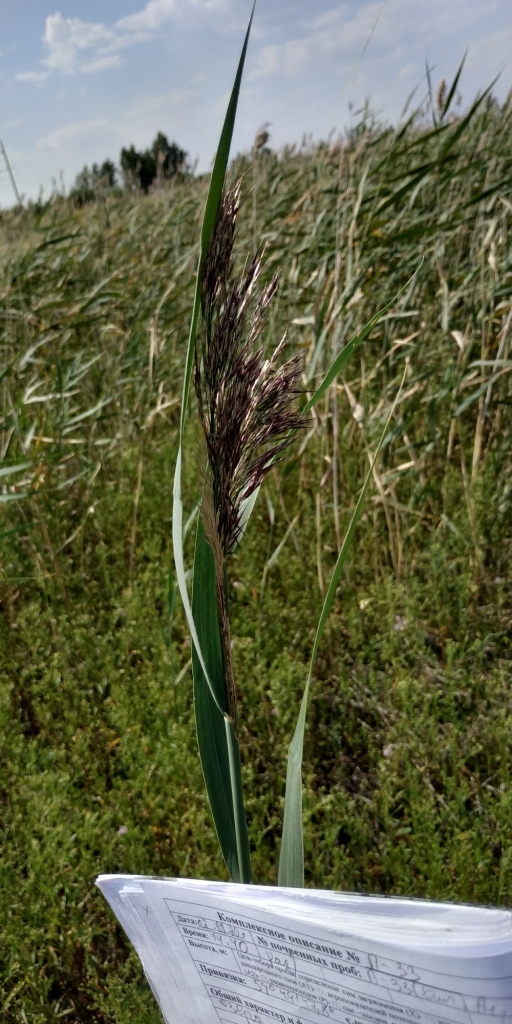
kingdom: Plantae
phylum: Tracheophyta
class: Liliopsida
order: Poales
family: Poaceae
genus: Phragmites
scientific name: Phragmites australis
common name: Common reed
